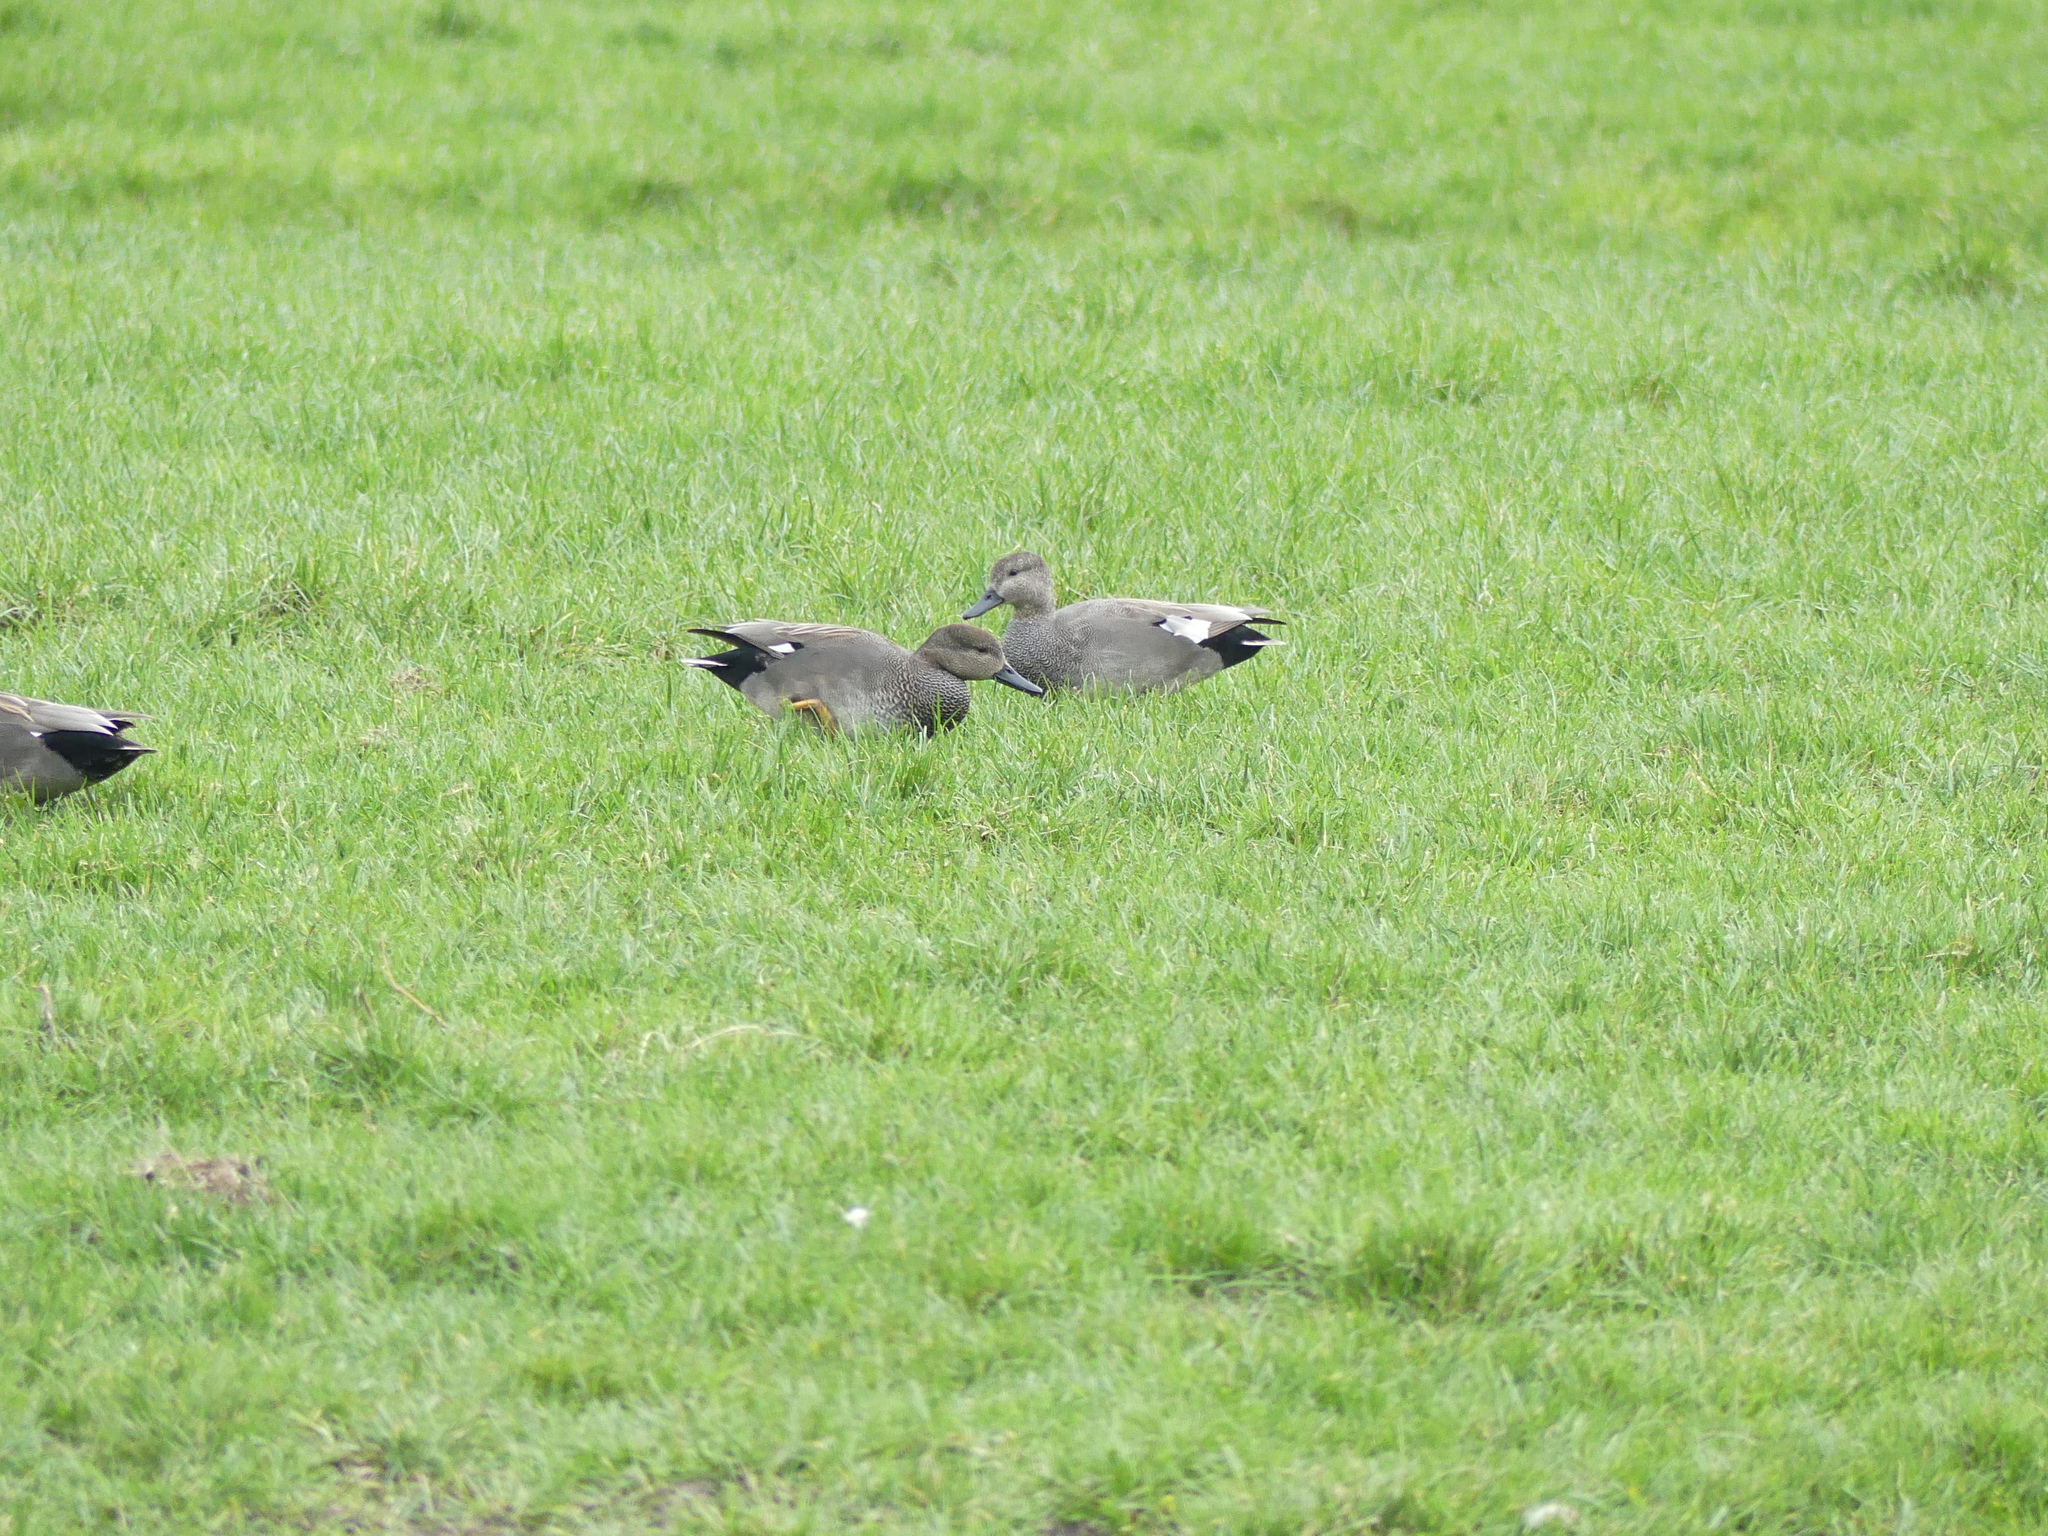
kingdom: Animalia
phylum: Chordata
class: Aves
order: Anseriformes
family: Anatidae
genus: Mareca
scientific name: Mareca strepera
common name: Gadwall
